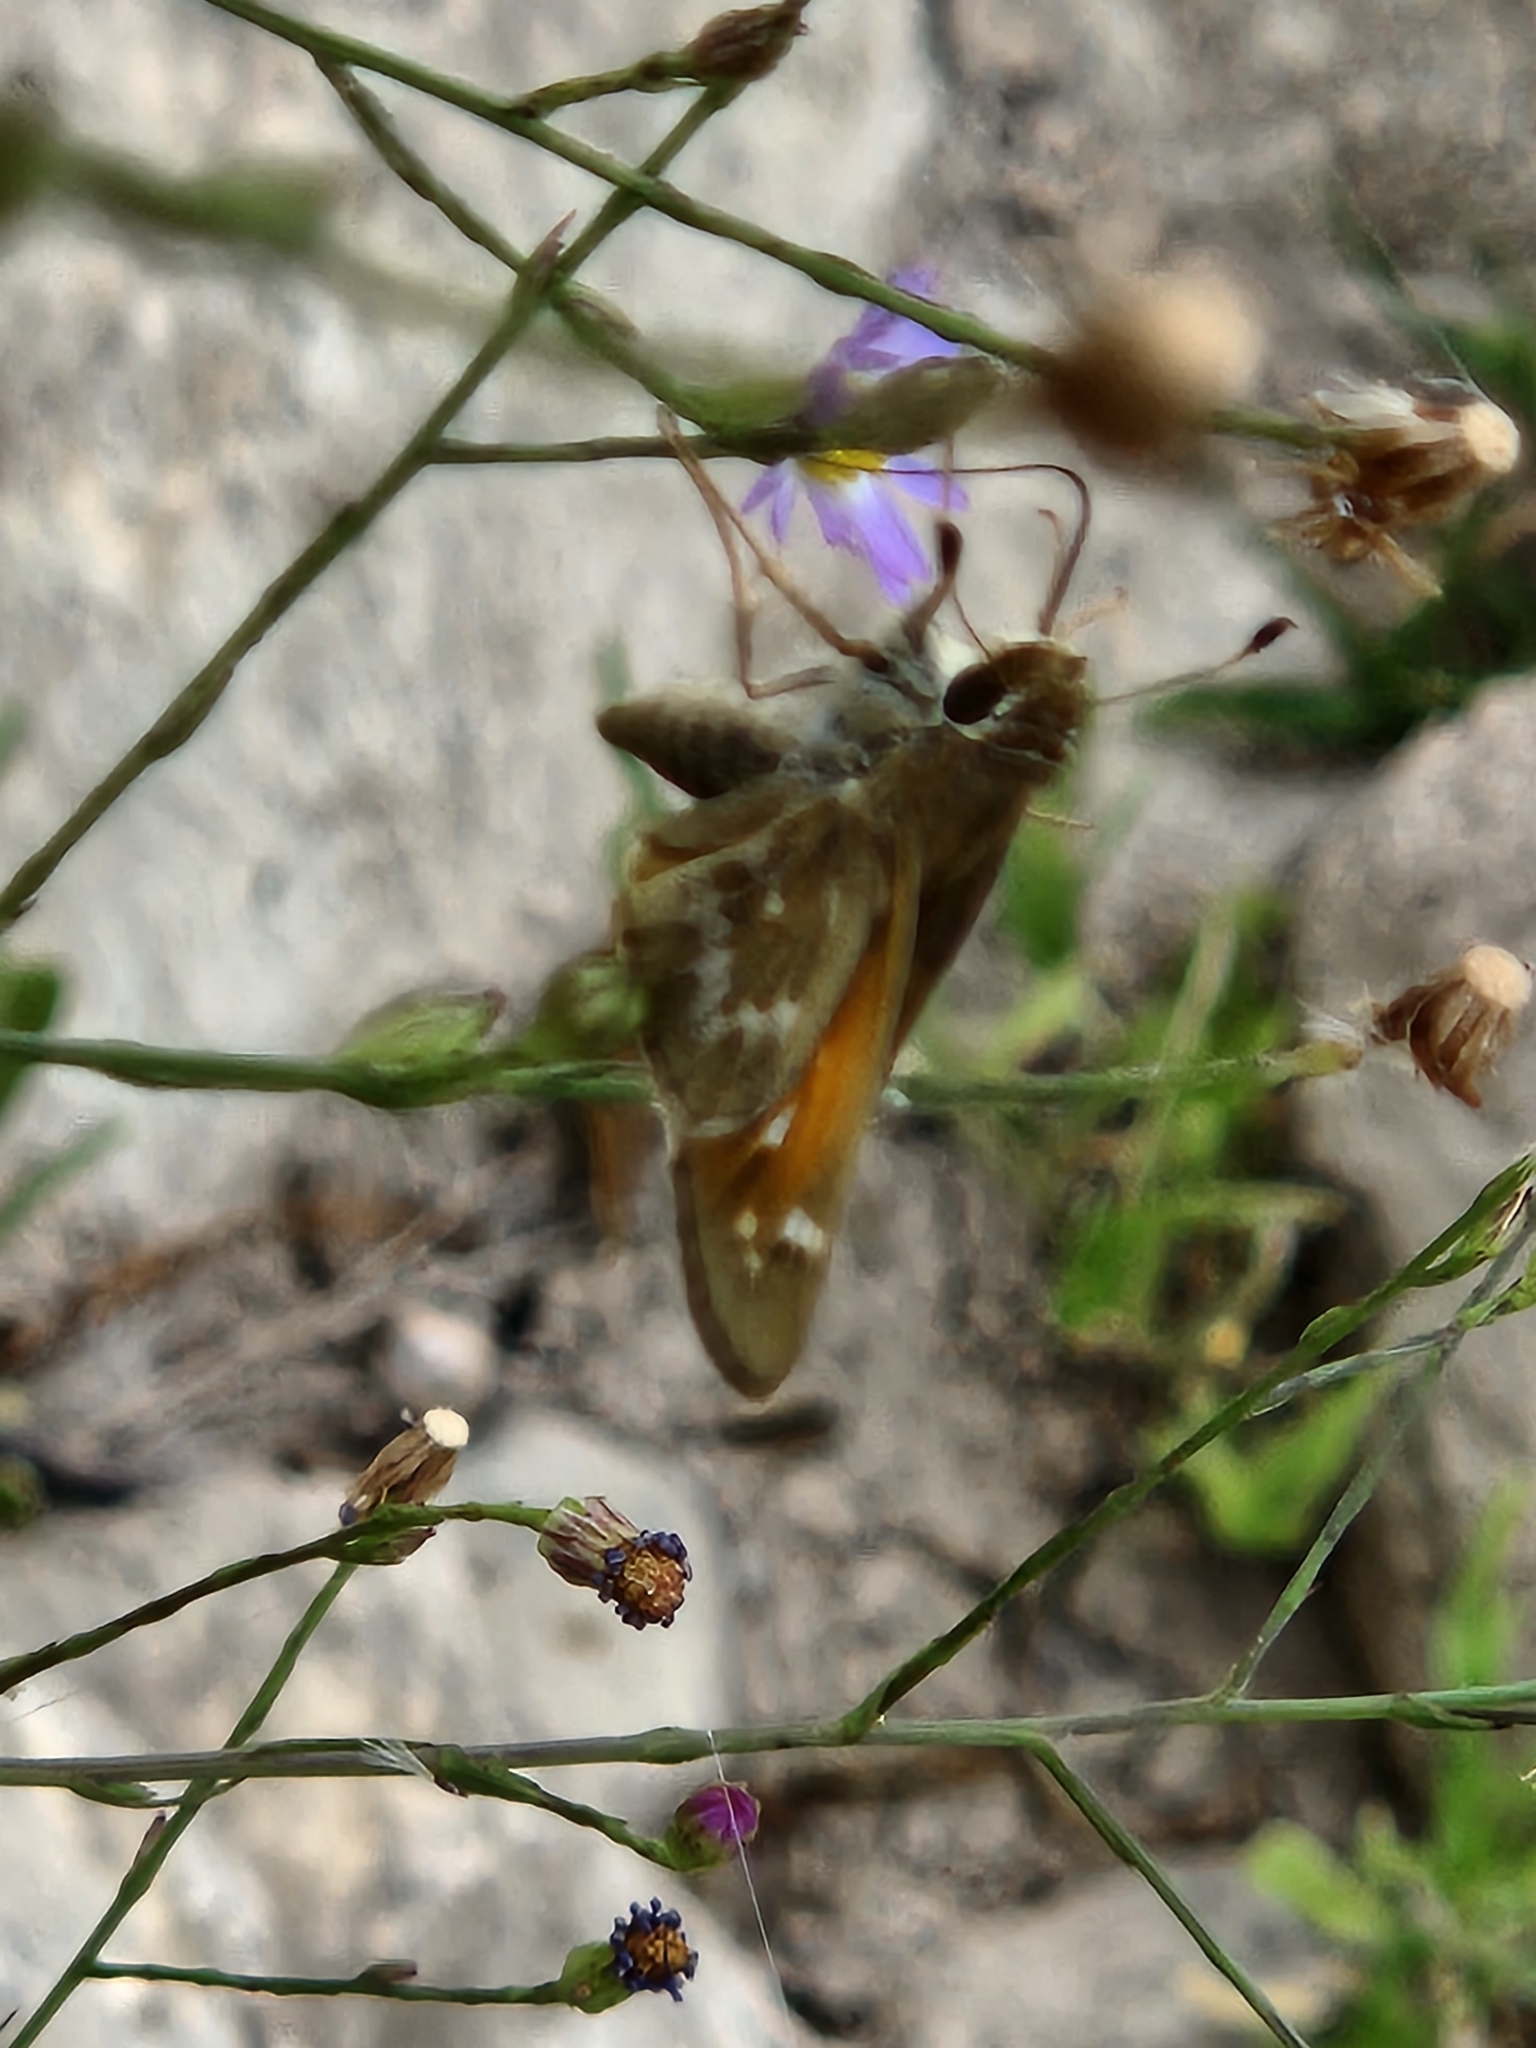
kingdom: Animalia
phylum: Arthropoda
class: Insecta
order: Lepidoptera
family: Hesperiidae
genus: Atalopedes
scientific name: Atalopedes
